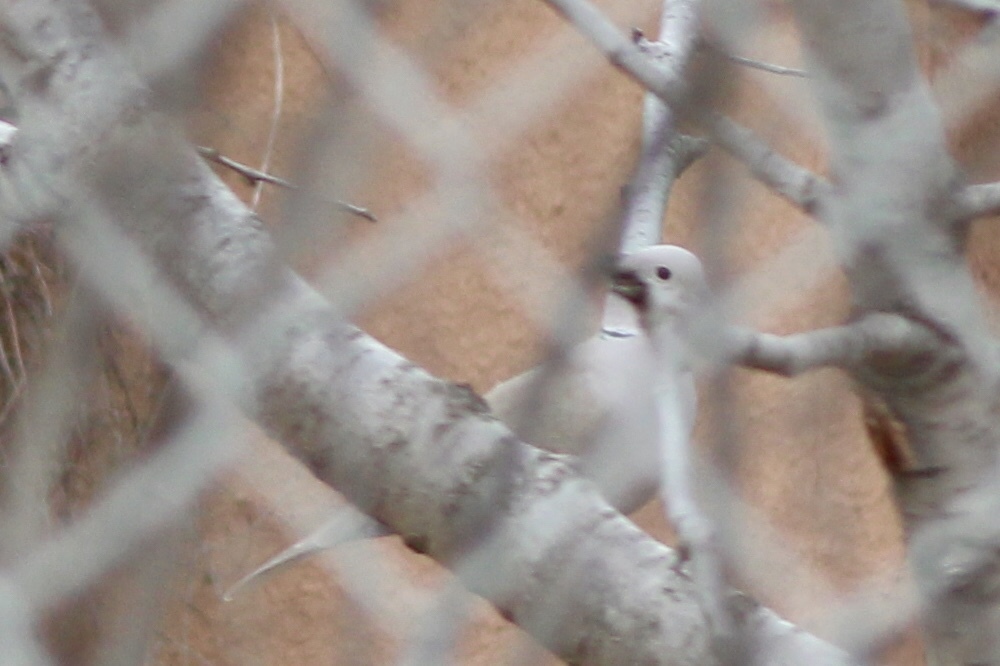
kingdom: Animalia
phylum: Chordata
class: Aves
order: Columbiformes
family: Columbidae
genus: Streptopelia
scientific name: Streptopelia decaocto
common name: Eurasian collared dove
